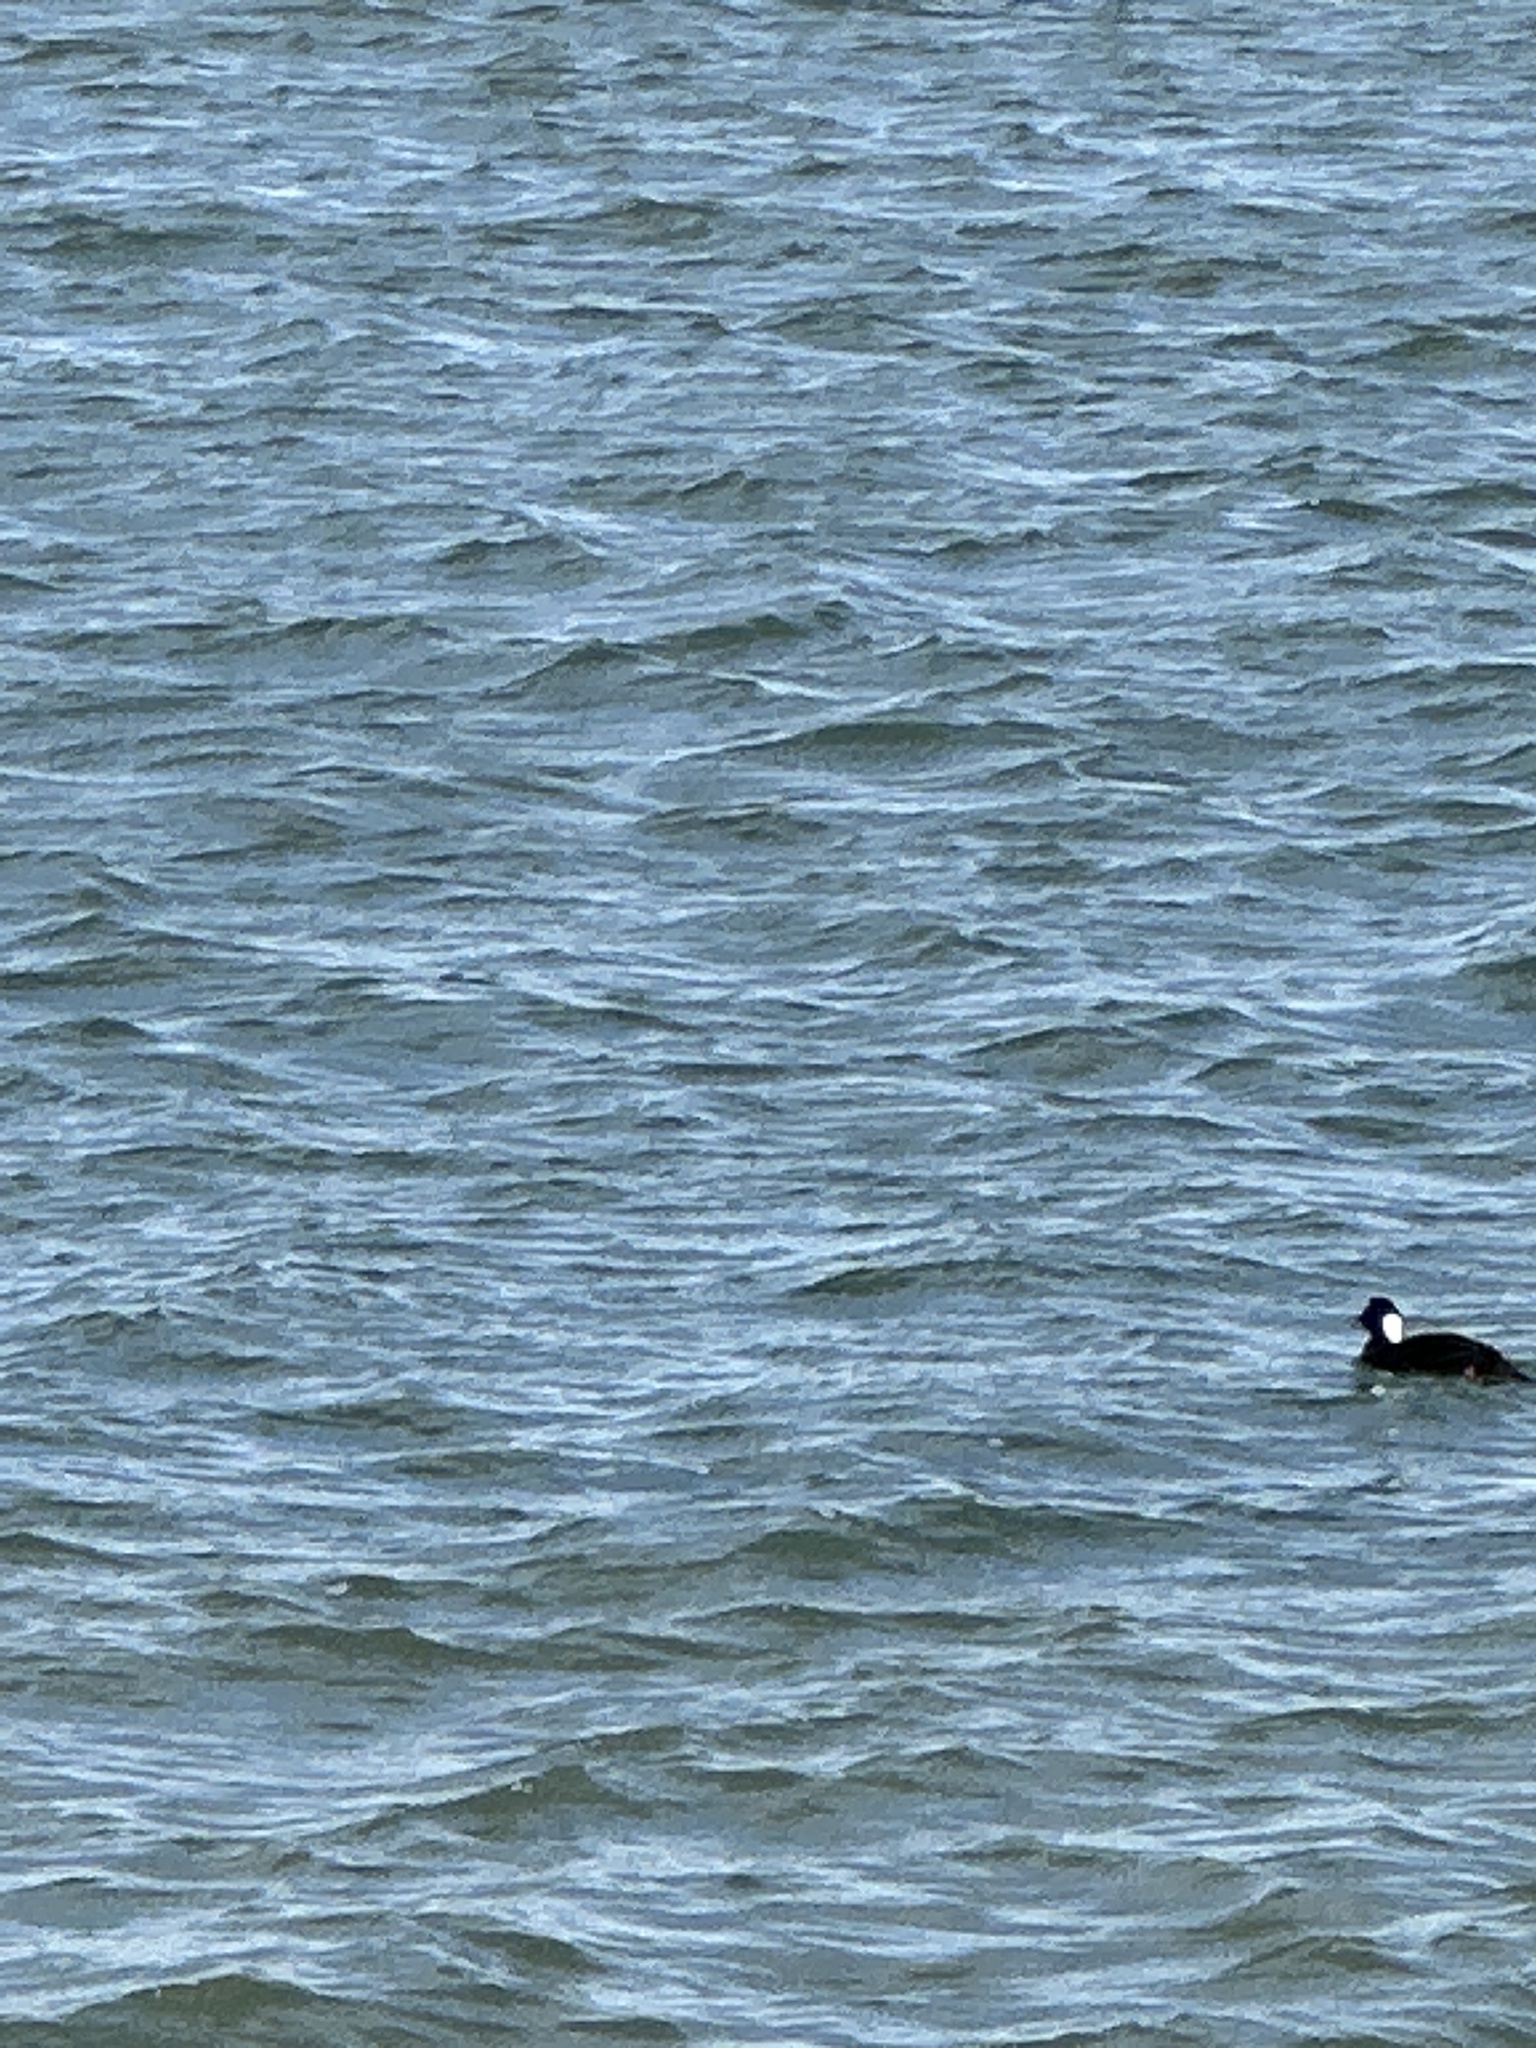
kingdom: Animalia
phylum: Chordata
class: Aves
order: Anseriformes
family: Anatidae
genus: Melanitta
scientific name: Melanitta perspicillata
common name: Surf scoter
